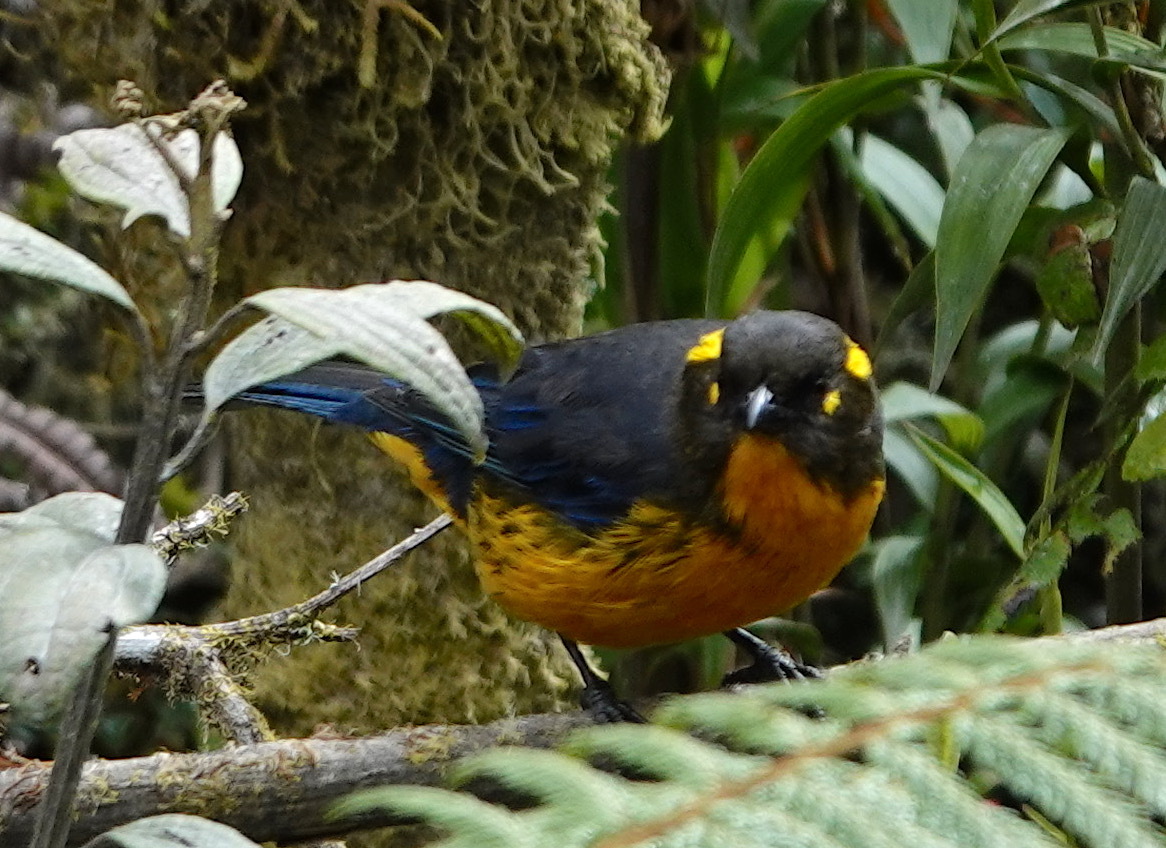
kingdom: Animalia
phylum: Chordata
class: Aves
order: Passeriformes
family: Thraupidae
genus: Anisognathus
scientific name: Anisognathus lacrymosus
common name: Lacrimose mountain-tanager
